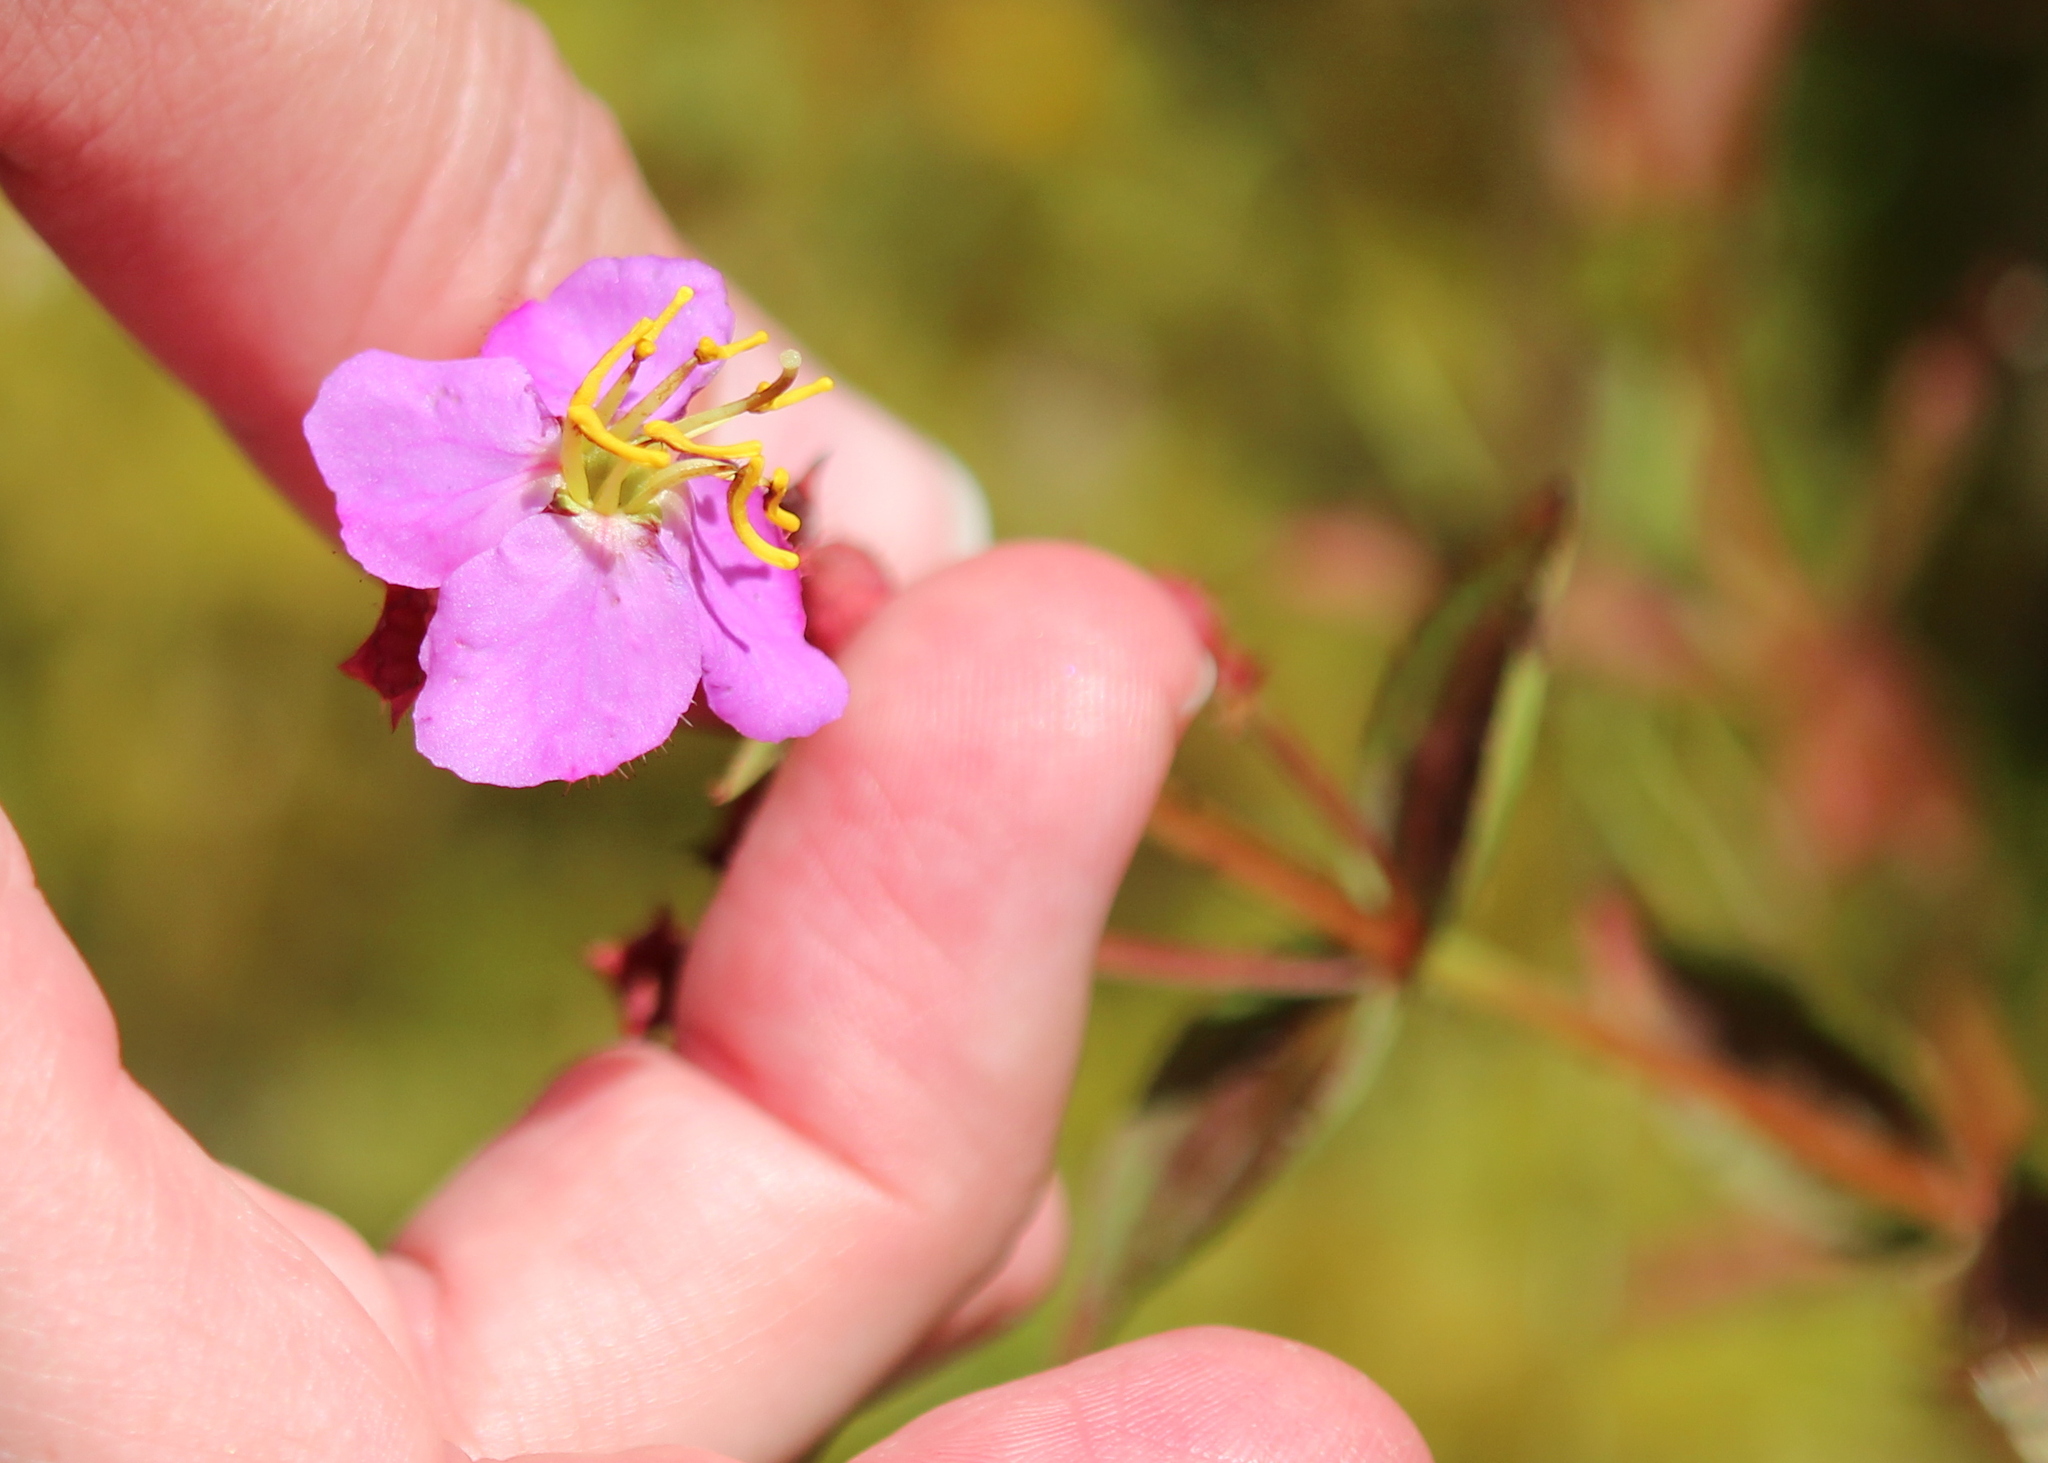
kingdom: Plantae
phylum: Tracheophyta
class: Magnoliopsida
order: Myrtales
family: Melastomataceae
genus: Rhexia
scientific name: Rhexia virginica
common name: Common meadow beauty
